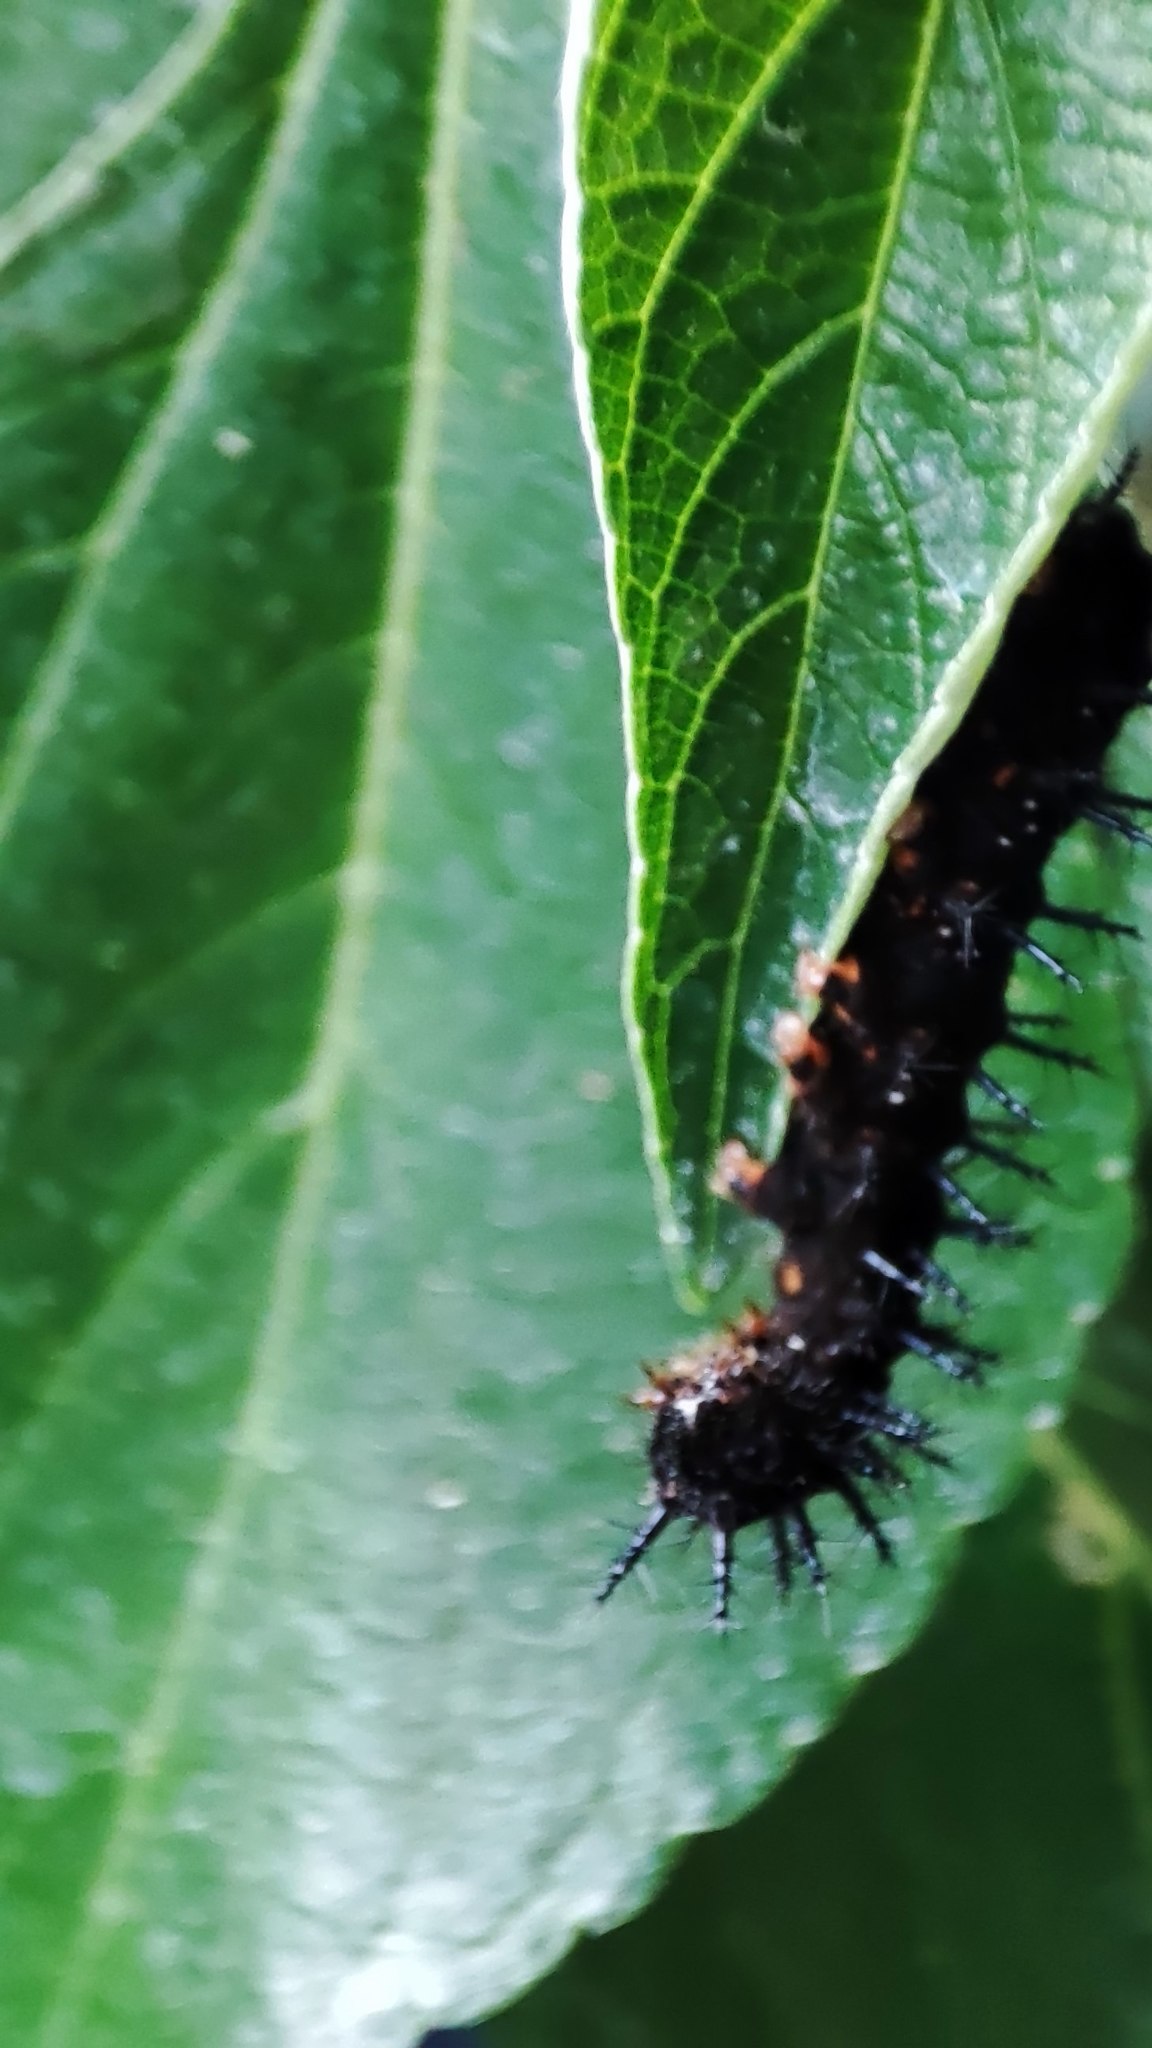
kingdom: Animalia
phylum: Arthropoda
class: Insecta
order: Lepidoptera
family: Nymphalidae
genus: Symbrenthia
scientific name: Symbrenthia hypselis
